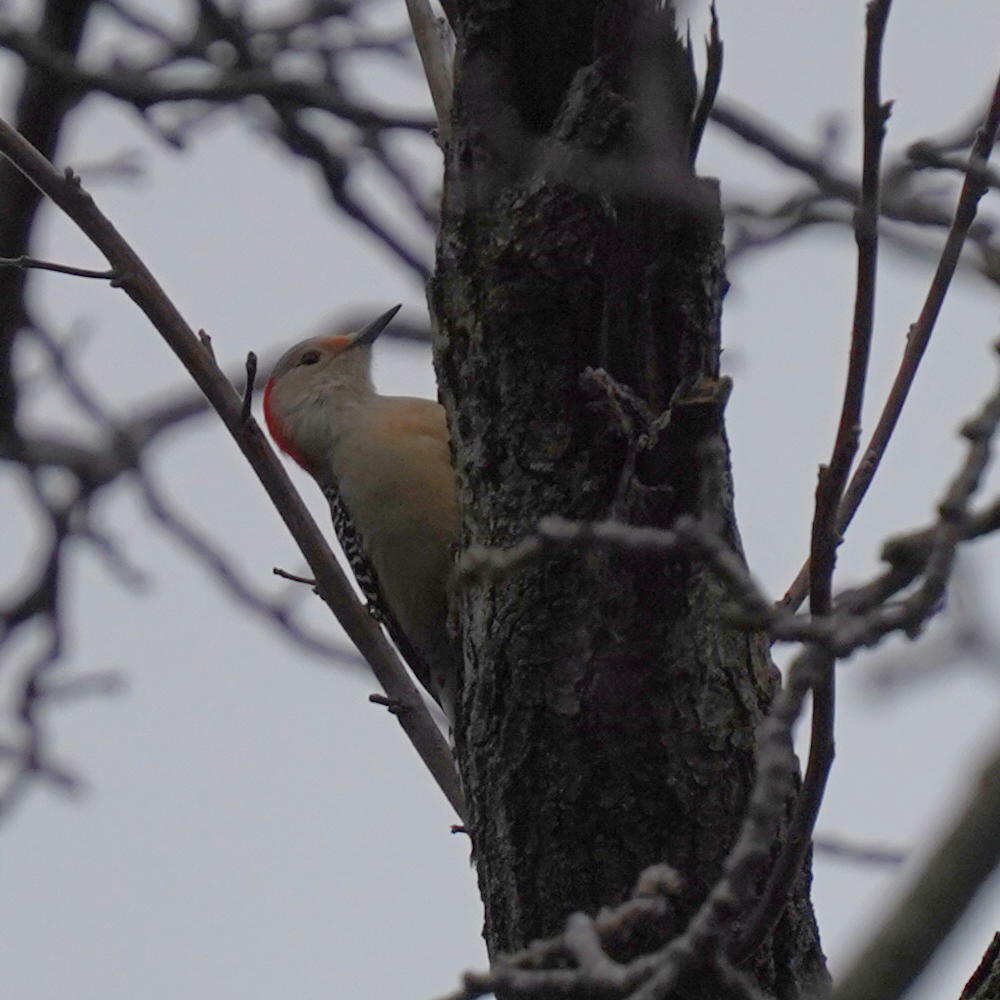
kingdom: Animalia
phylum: Chordata
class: Aves
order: Piciformes
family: Picidae
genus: Melanerpes
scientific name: Melanerpes carolinus
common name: Red-bellied woodpecker
